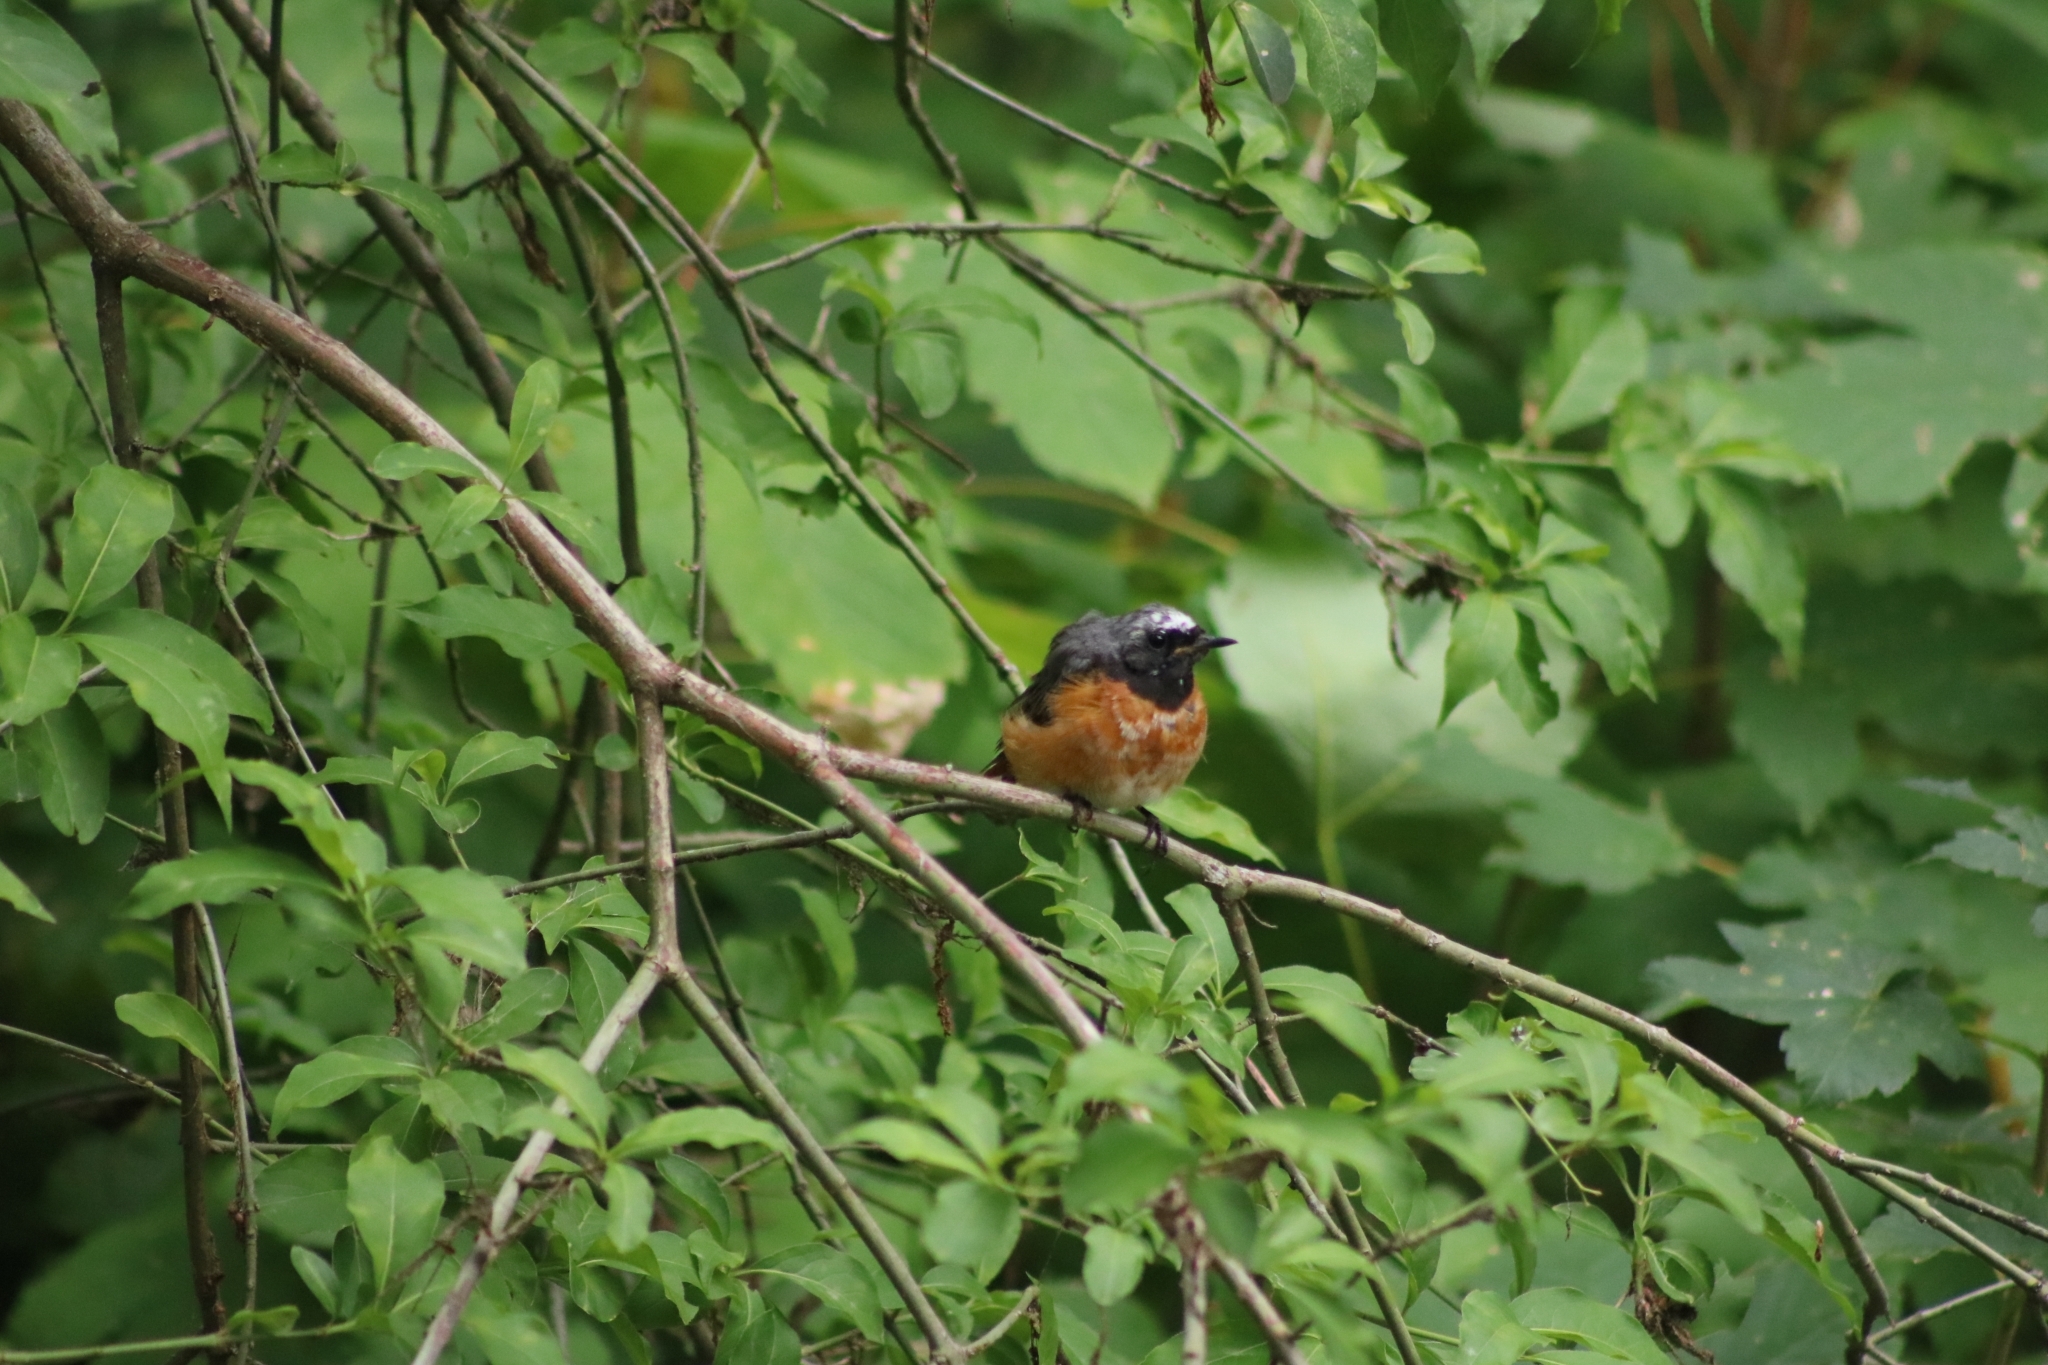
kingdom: Animalia
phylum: Chordata
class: Aves
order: Passeriformes
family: Muscicapidae
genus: Phoenicurus
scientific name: Phoenicurus phoenicurus
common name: Common redstart
